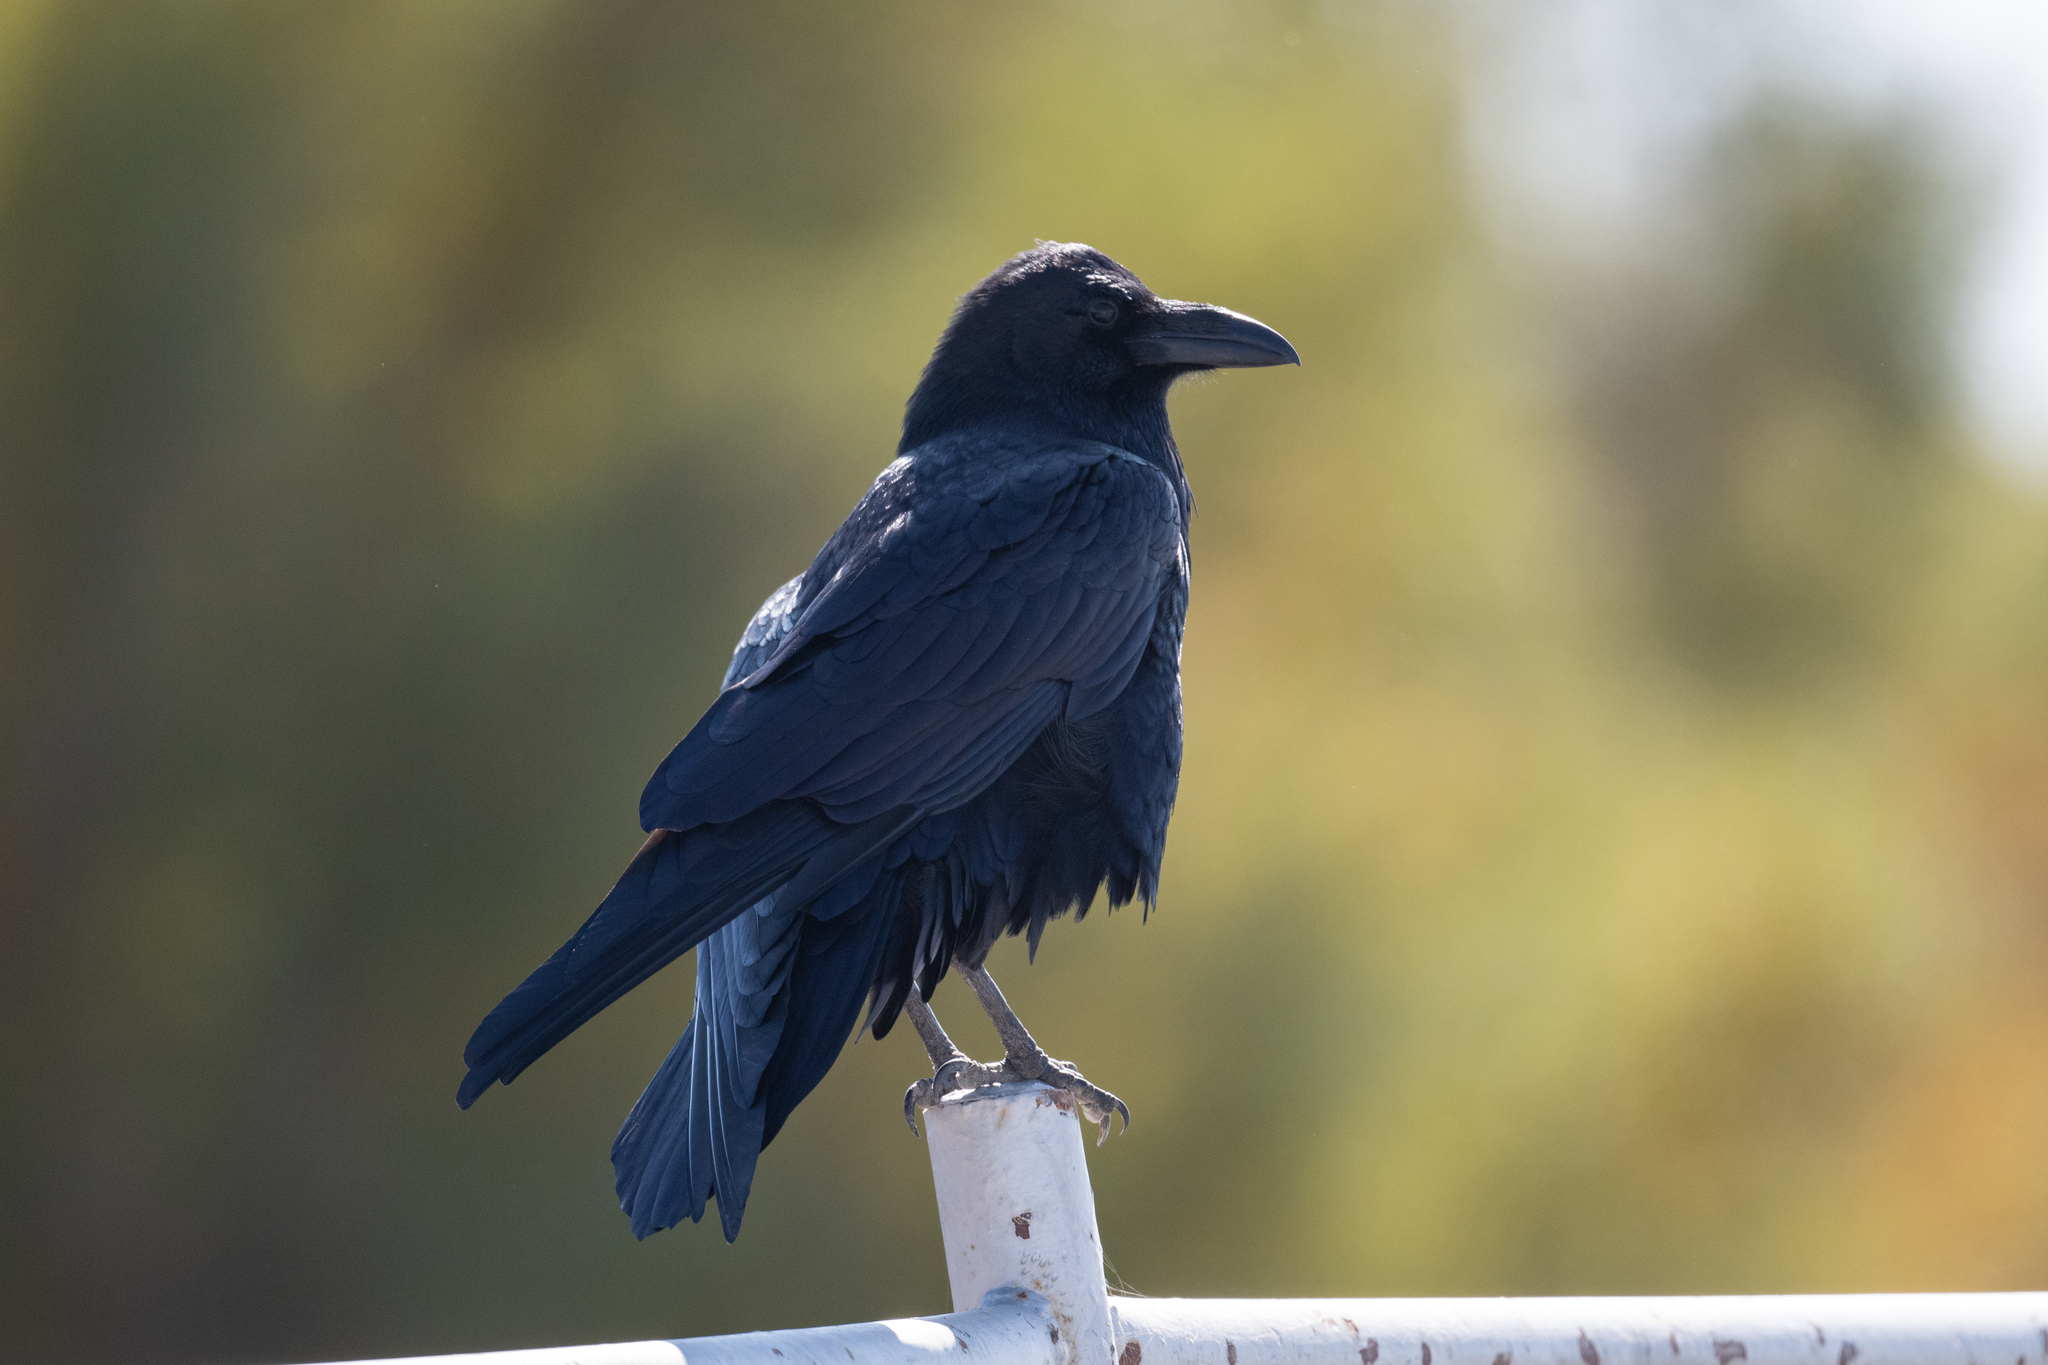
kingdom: Animalia
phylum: Chordata
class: Aves
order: Passeriformes
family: Corvidae
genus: Corvus
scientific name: Corvus corax
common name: Common raven
